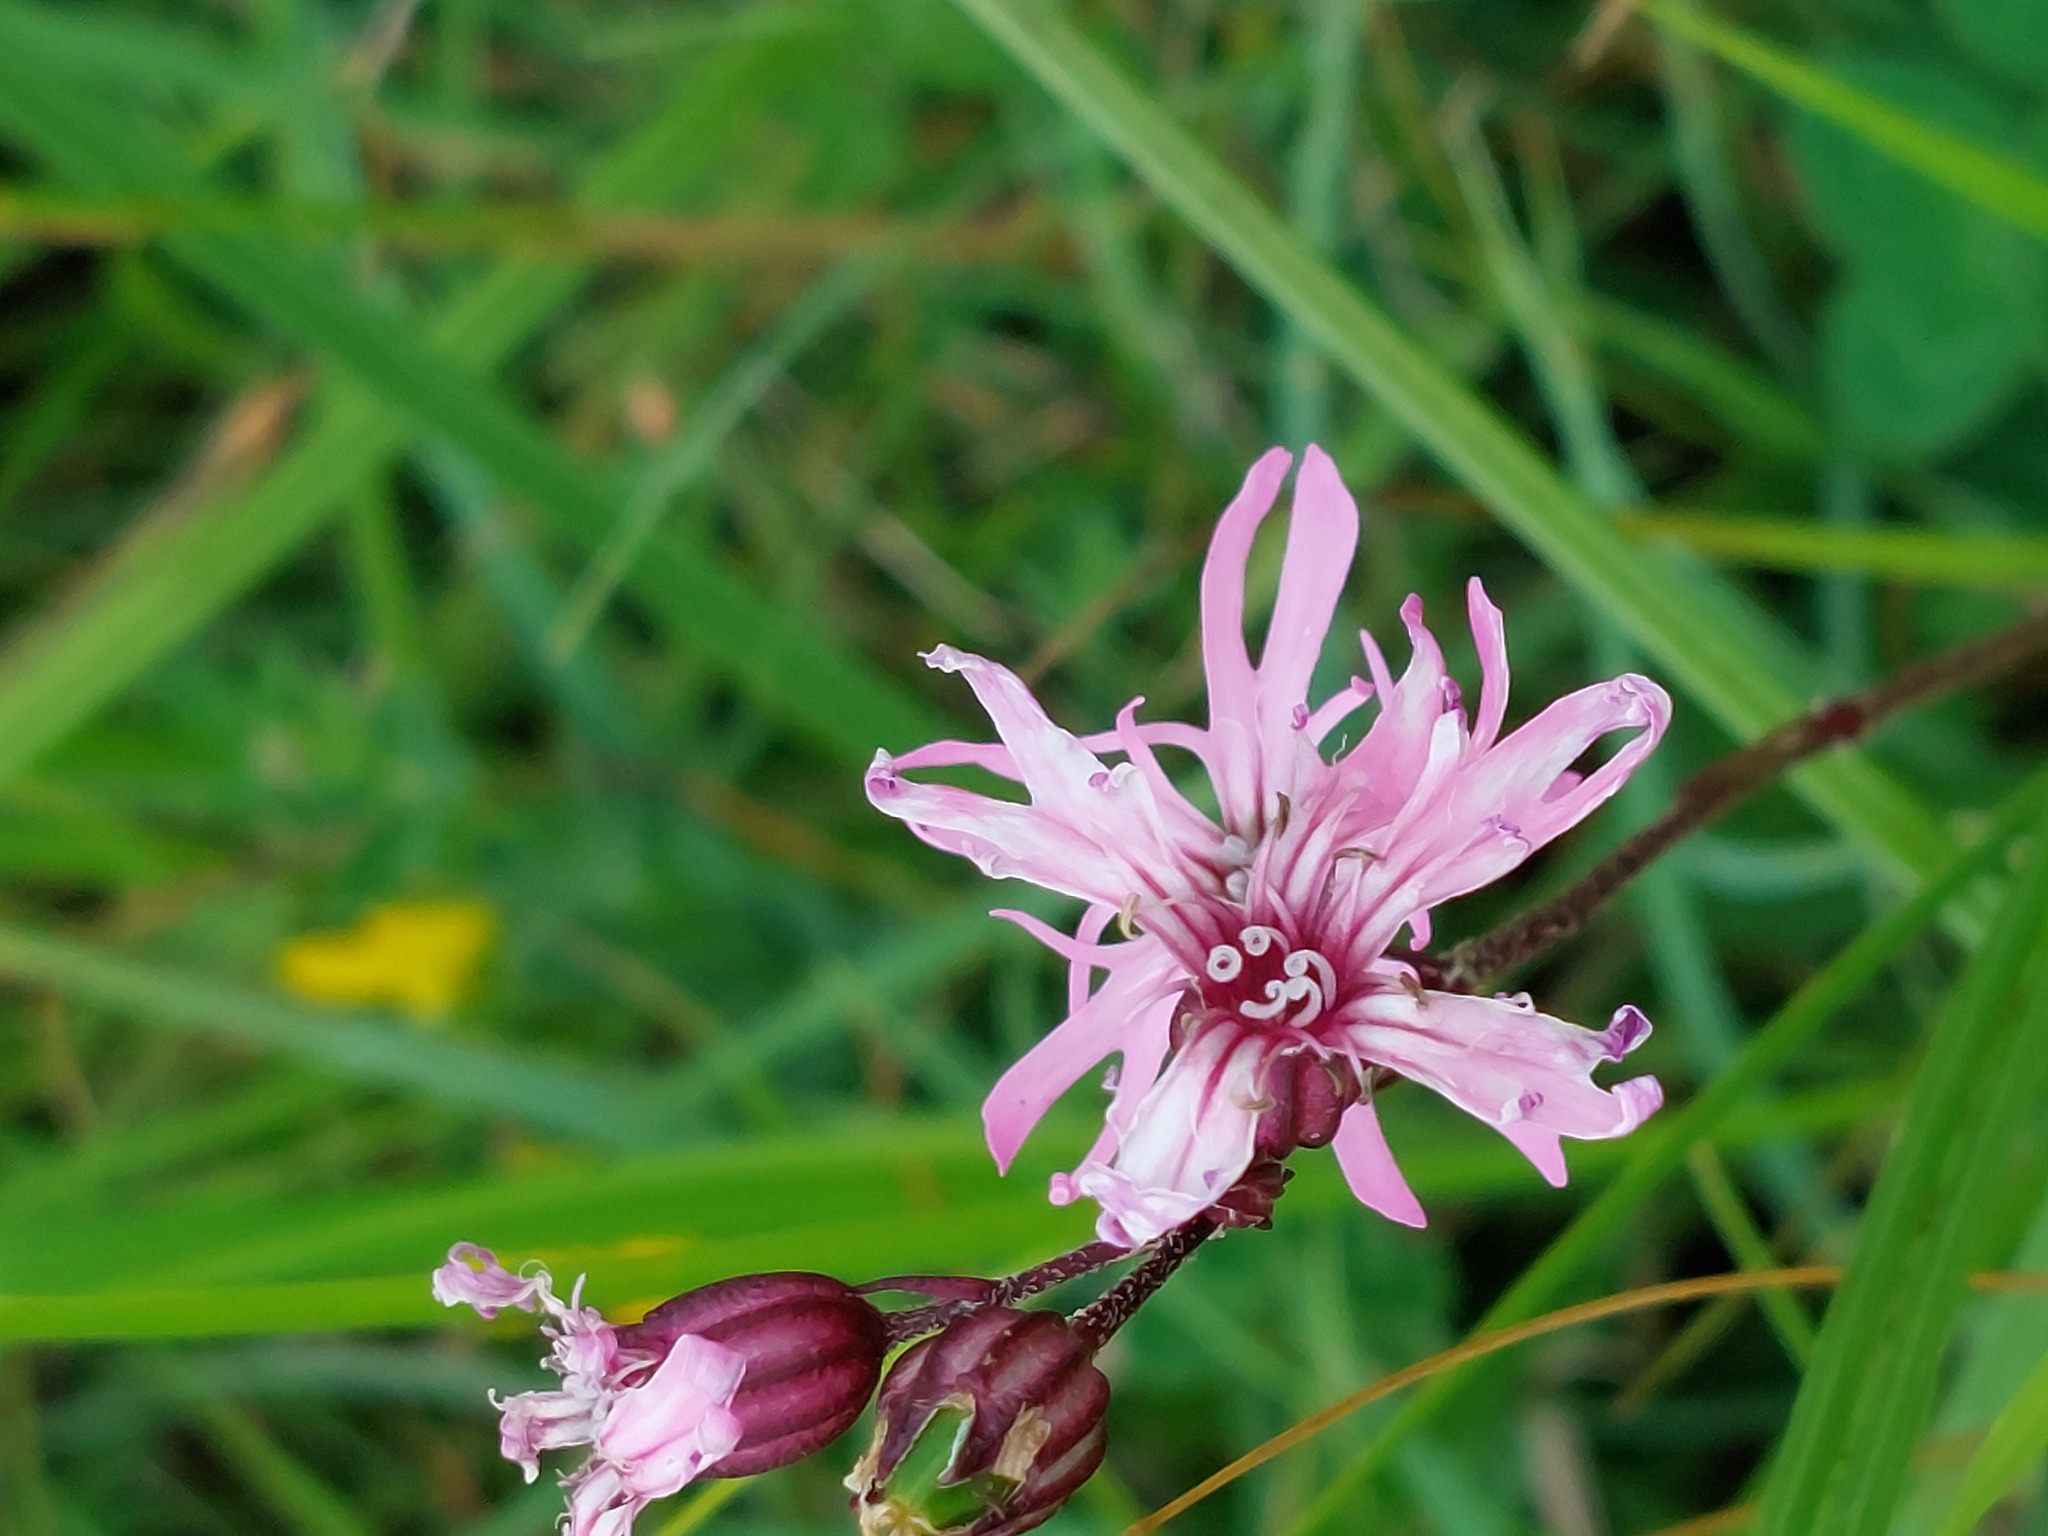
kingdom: Plantae
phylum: Tracheophyta
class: Magnoliopsida
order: Caryophyllales
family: Caryophyllaceae
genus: Silene
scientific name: Silene flos-cuculi
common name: Ragged-robin
